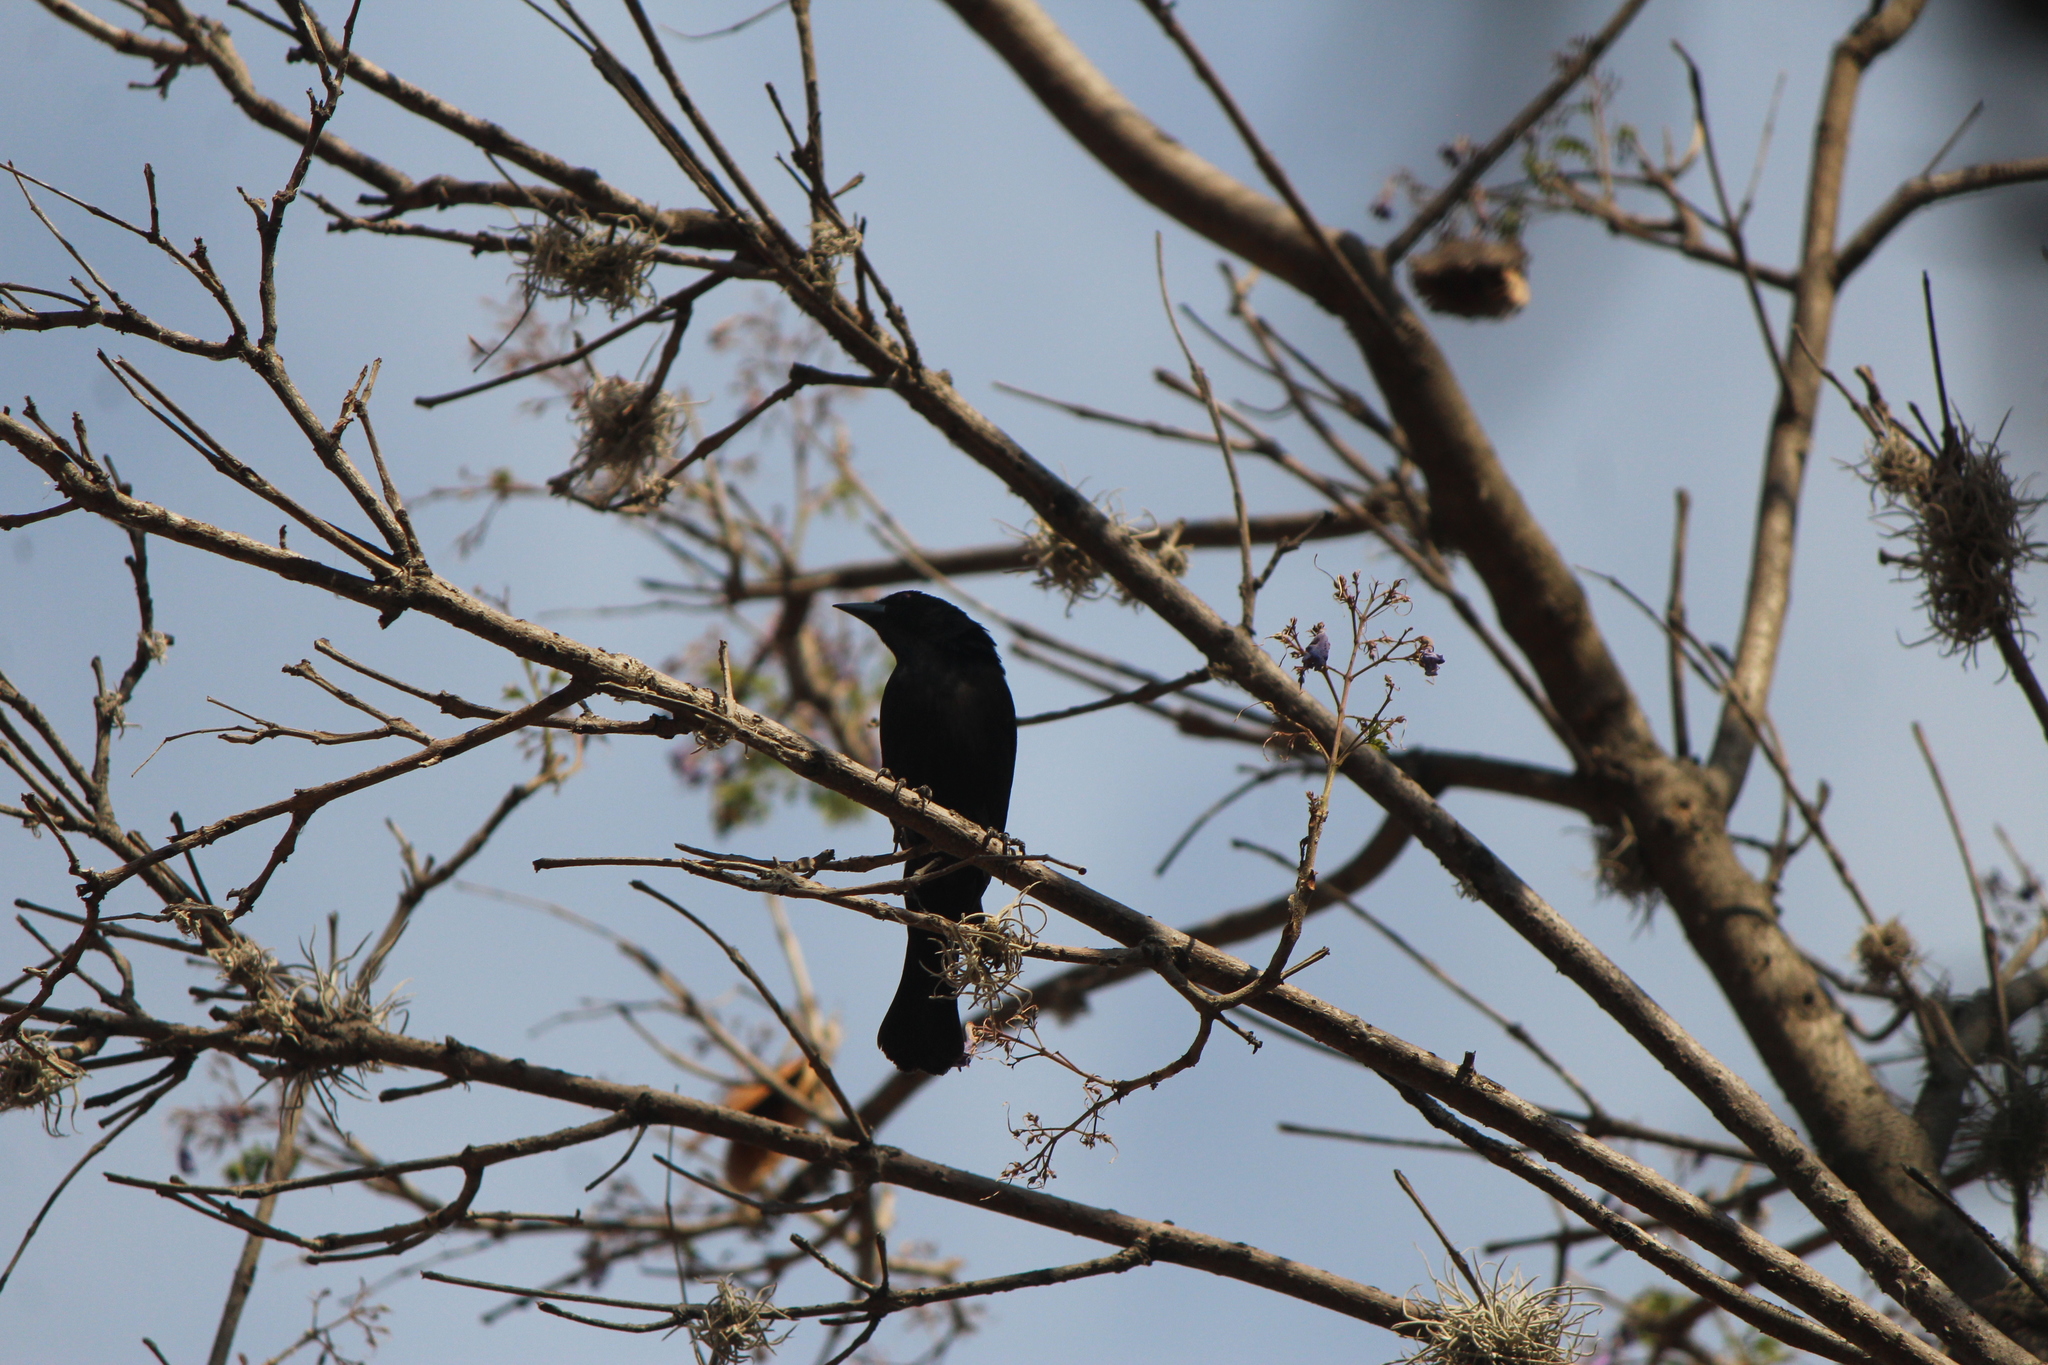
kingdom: Animalia
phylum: Chordata
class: Aves
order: Passeriformes
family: Icteridae
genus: Molothrus
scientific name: Molothrus aeneus
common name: Bronzed cowbird
